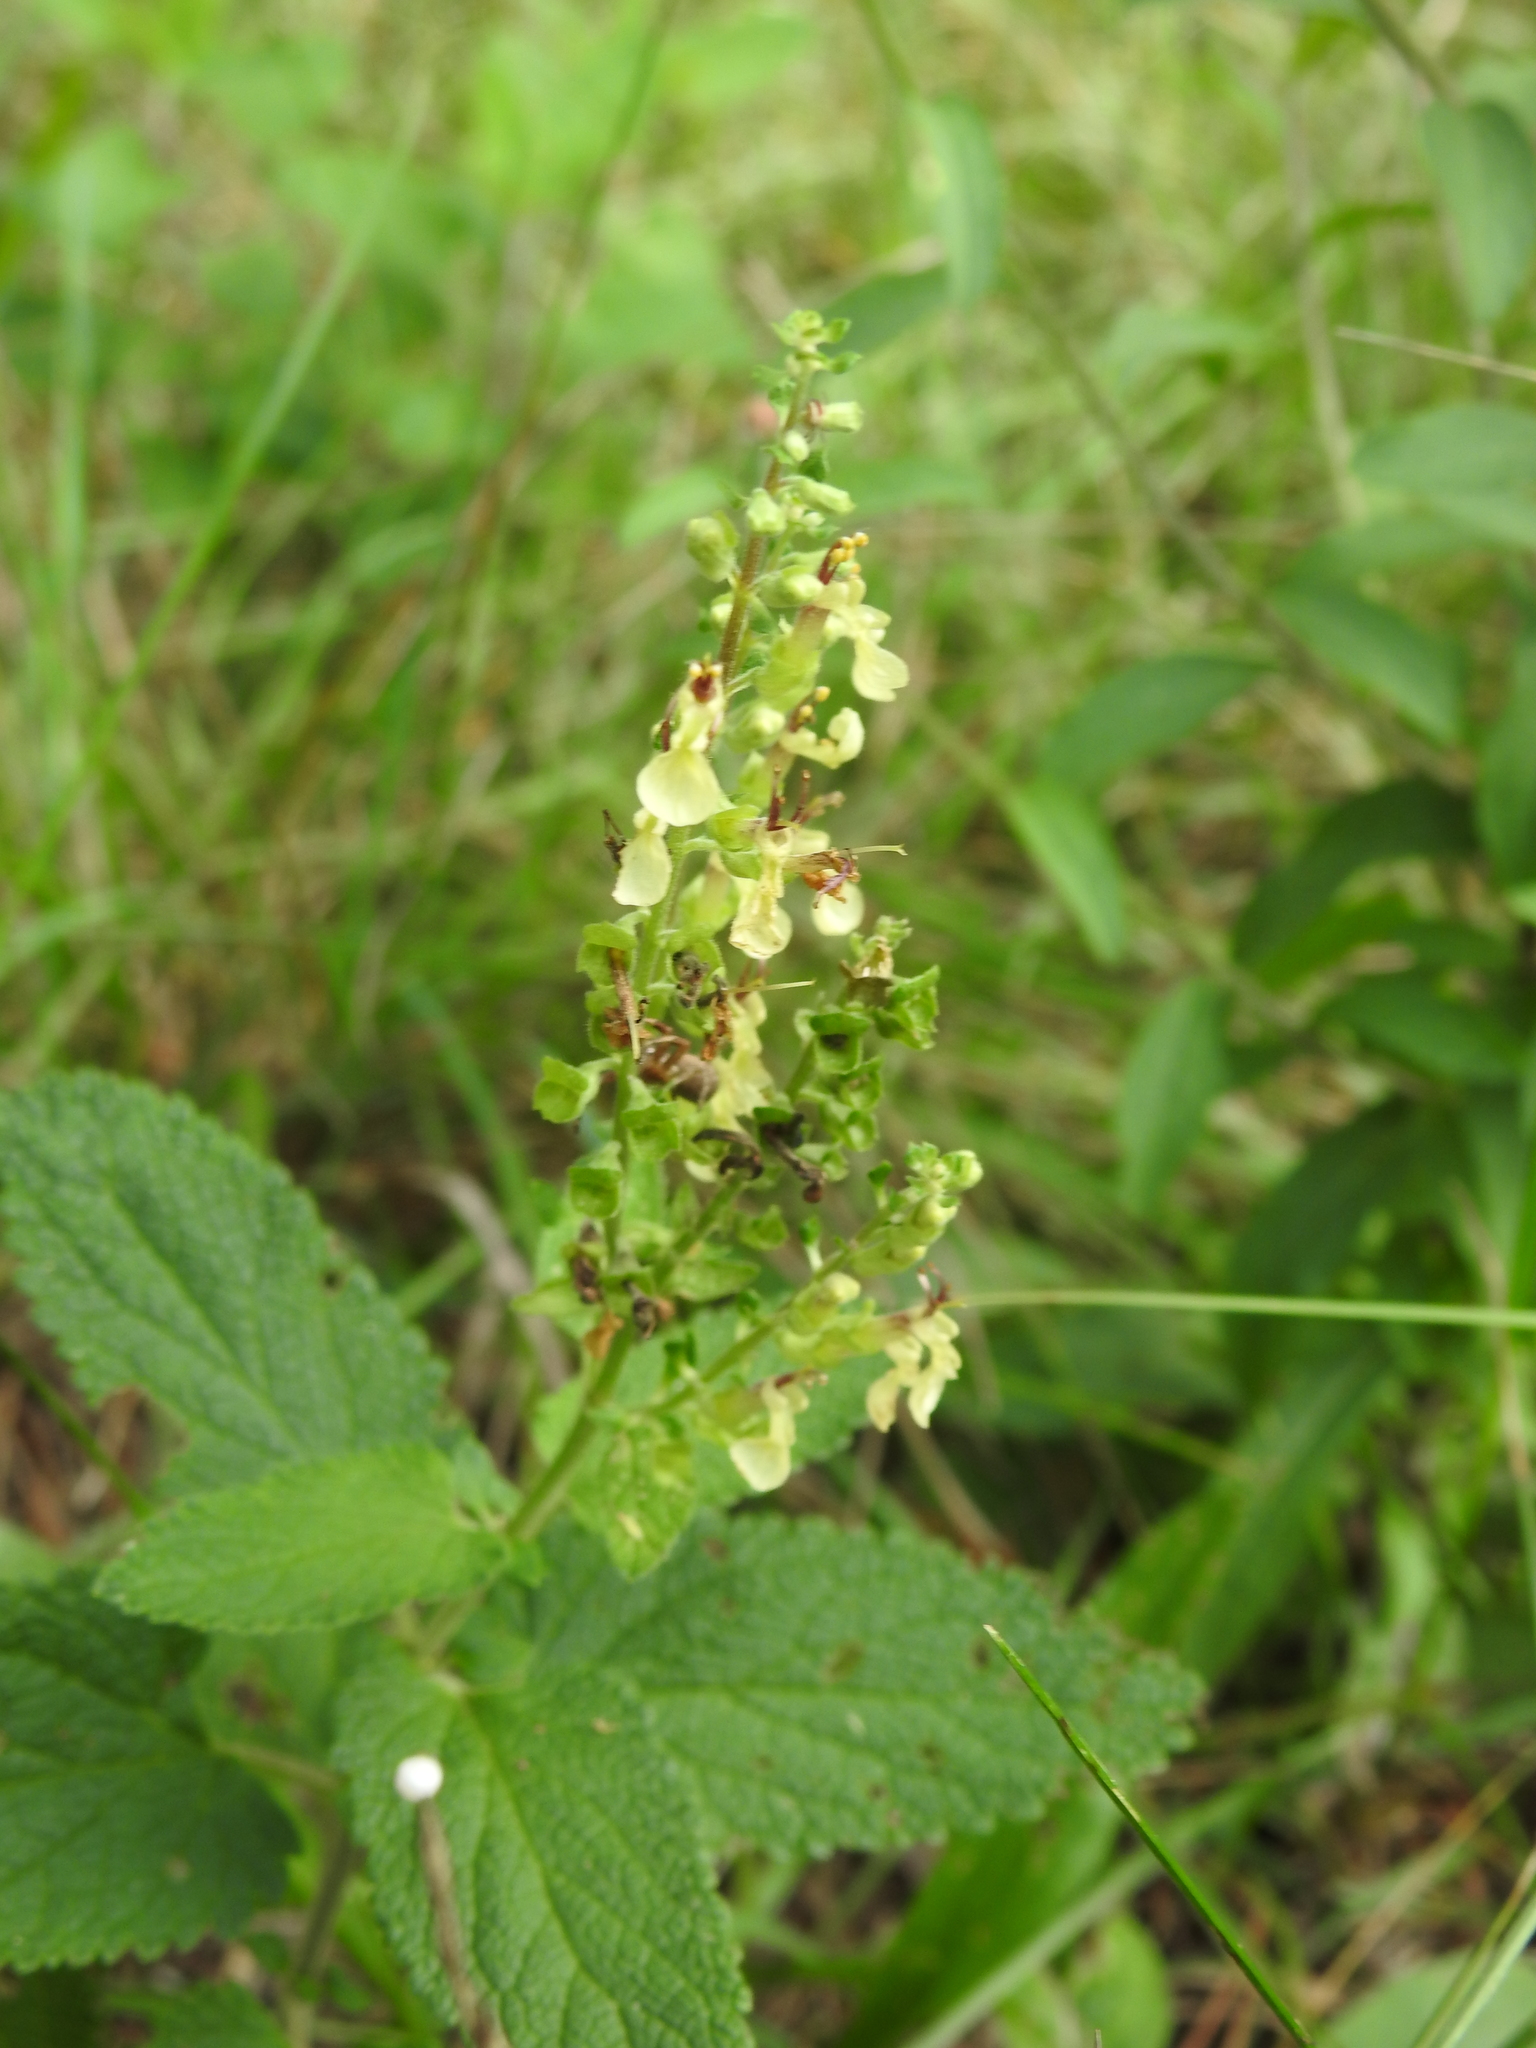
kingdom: Plantae
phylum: Tracheophyta
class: Magnoliopsida
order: Lamiales
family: Lamiaceae
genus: Teucrium
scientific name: Teucrium scorodonia
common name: Woodland germander
